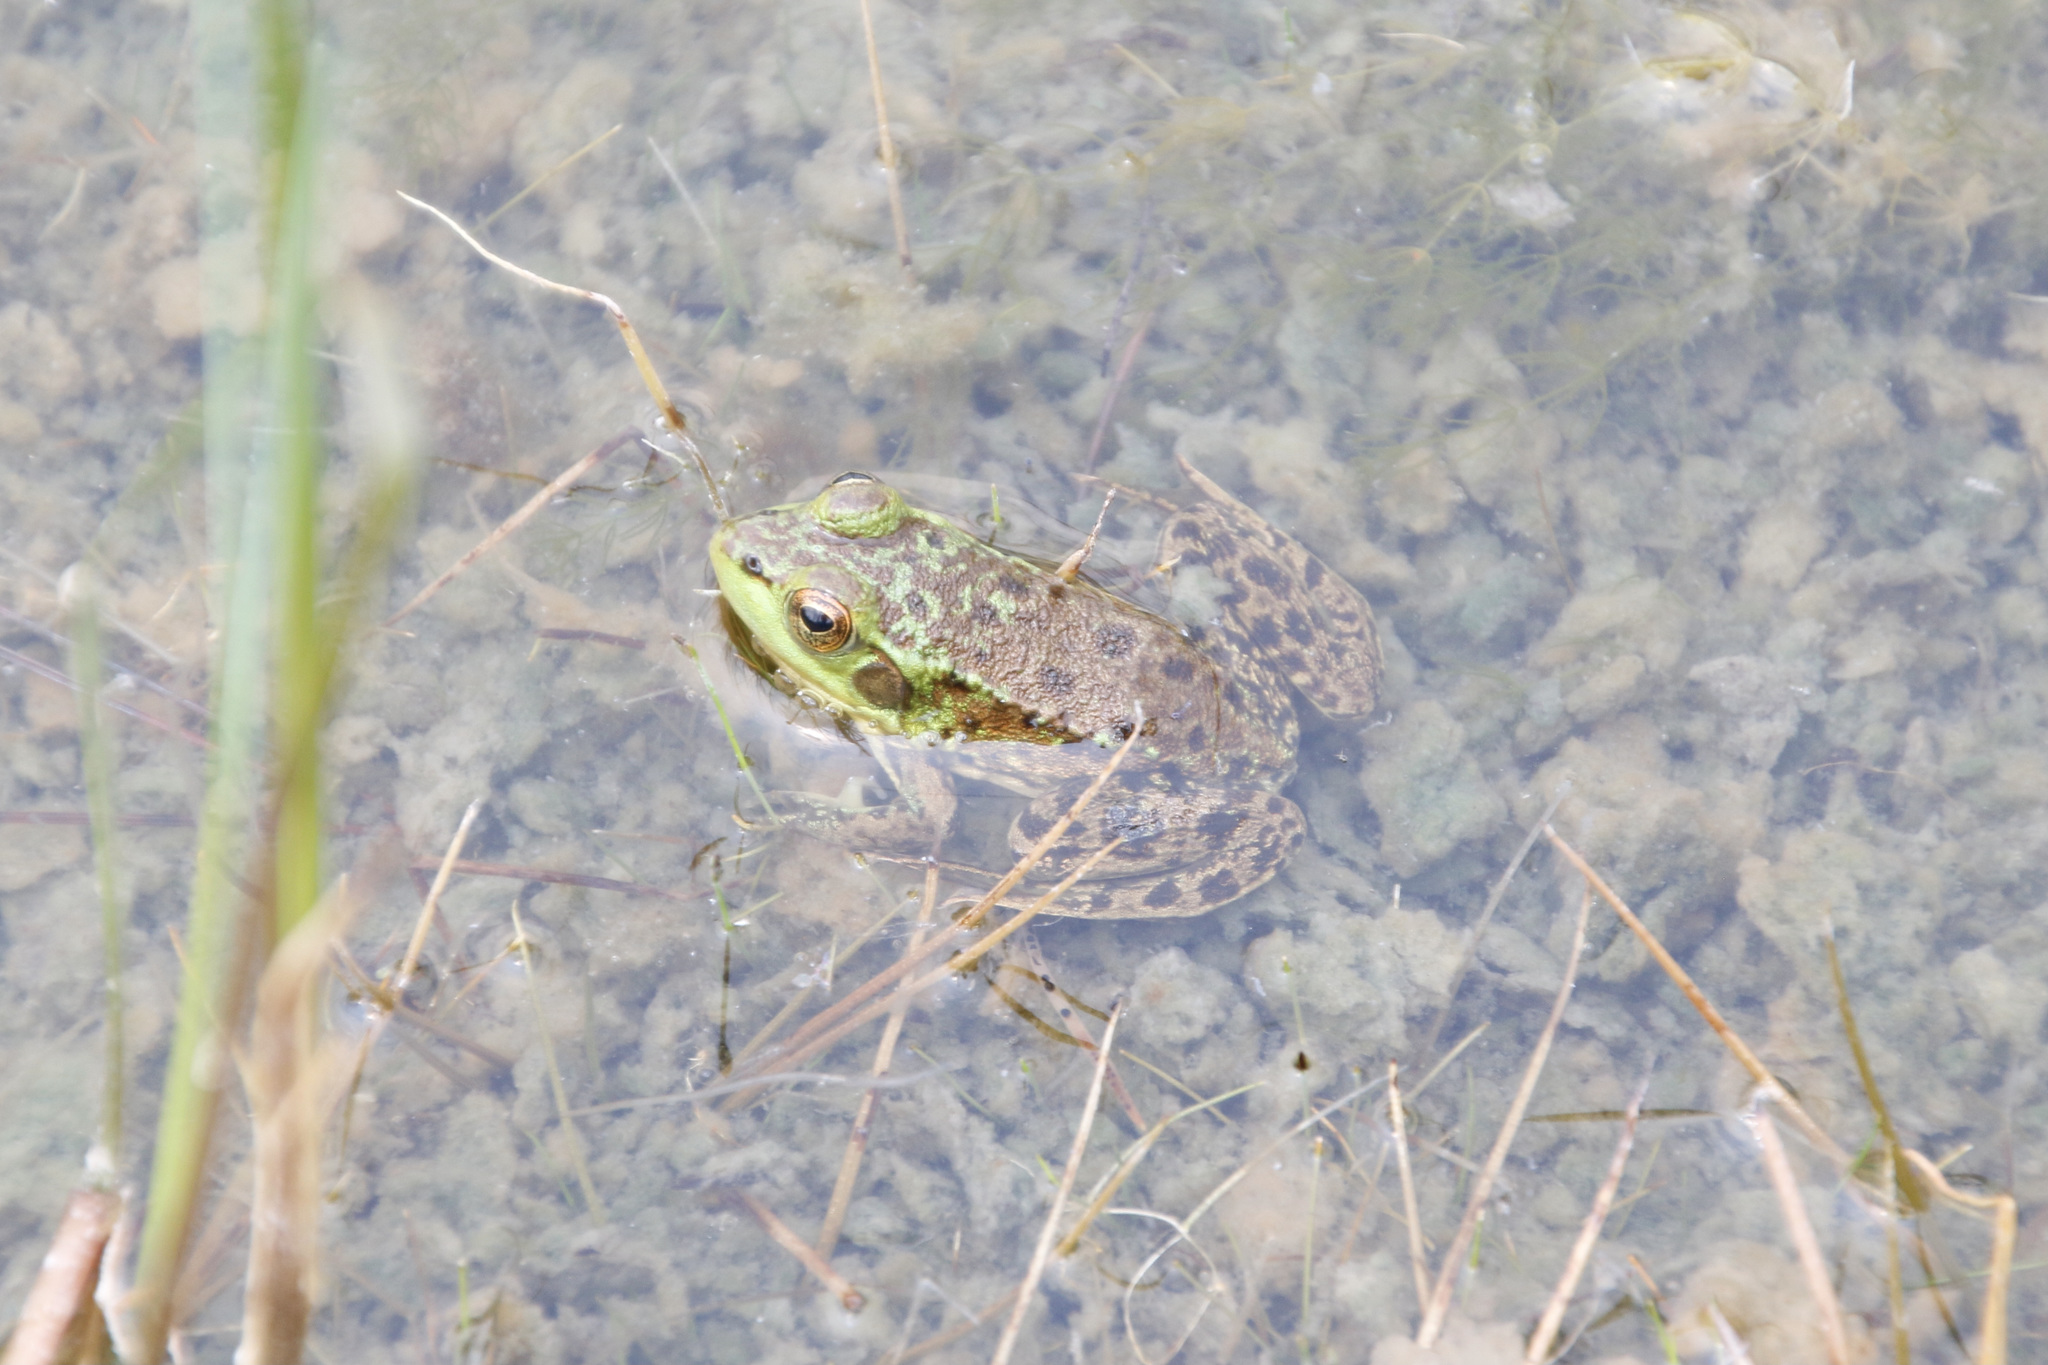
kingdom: Animalia
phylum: Chordata
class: Amphibia
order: Anura
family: Ranidae
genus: Lithobates
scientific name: Lithobates septentrionalis
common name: Mink frog
